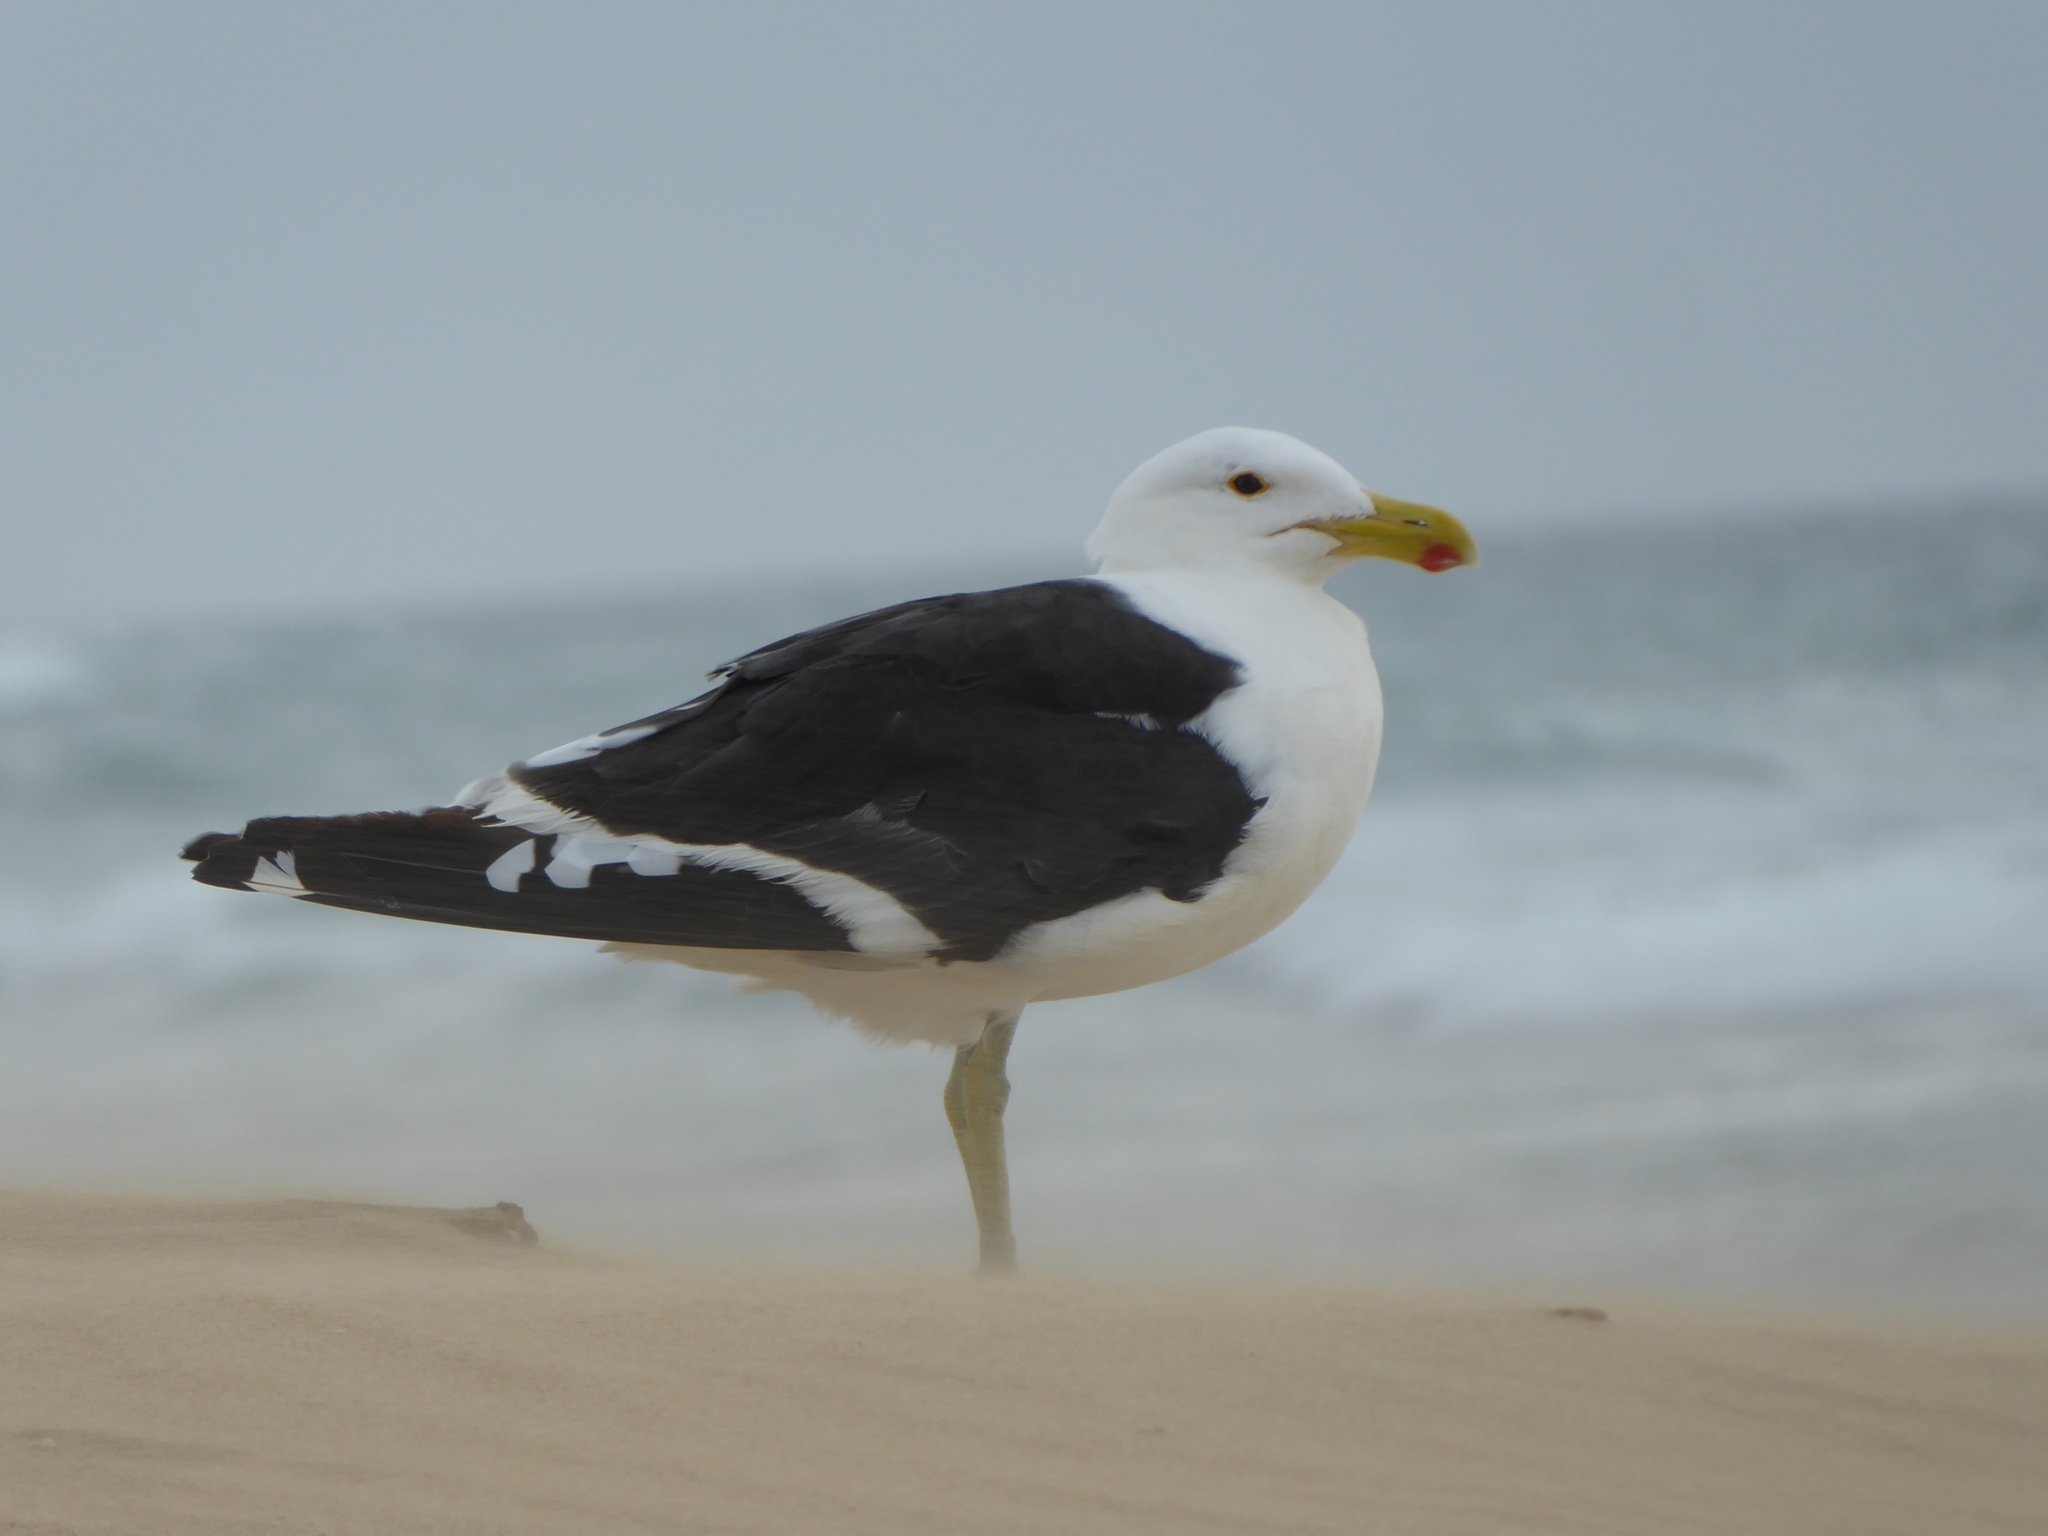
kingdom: Animalia
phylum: Chordata
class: Aves
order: Charadriiformes
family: Laridae
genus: Larus
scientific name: Larus dominicanus
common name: Kelp gull
